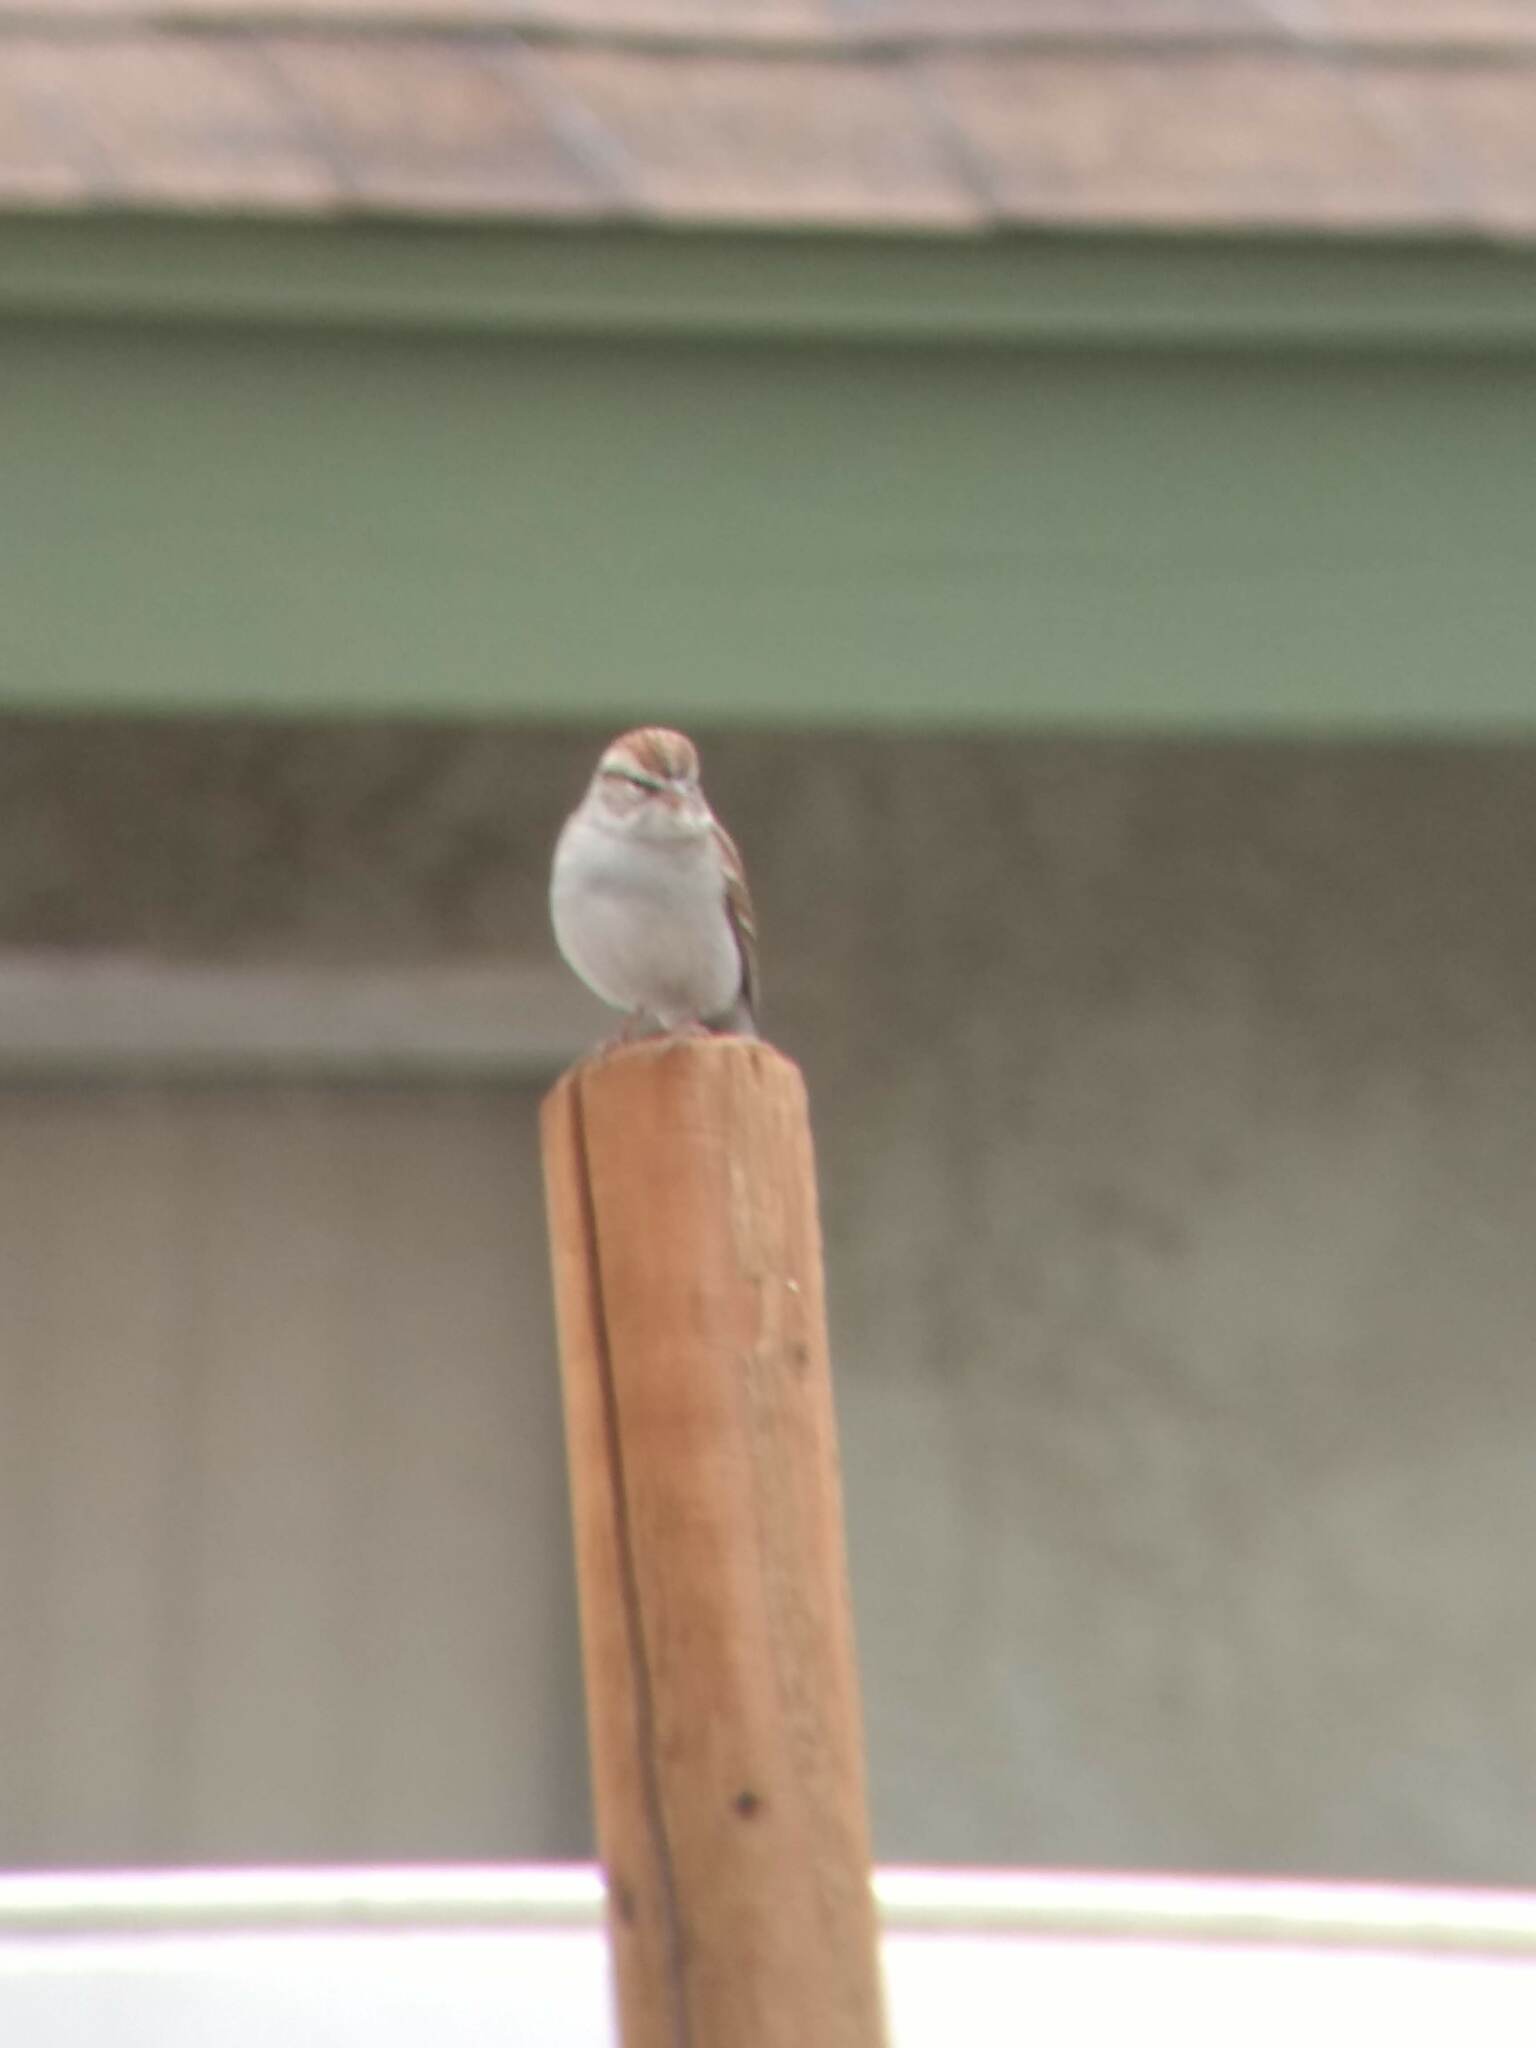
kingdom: Animalia
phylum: Chordata
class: Aves
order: Passeriformes
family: Passerellidae
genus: Spizella
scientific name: Spizella passerina
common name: Chipping sparrow
